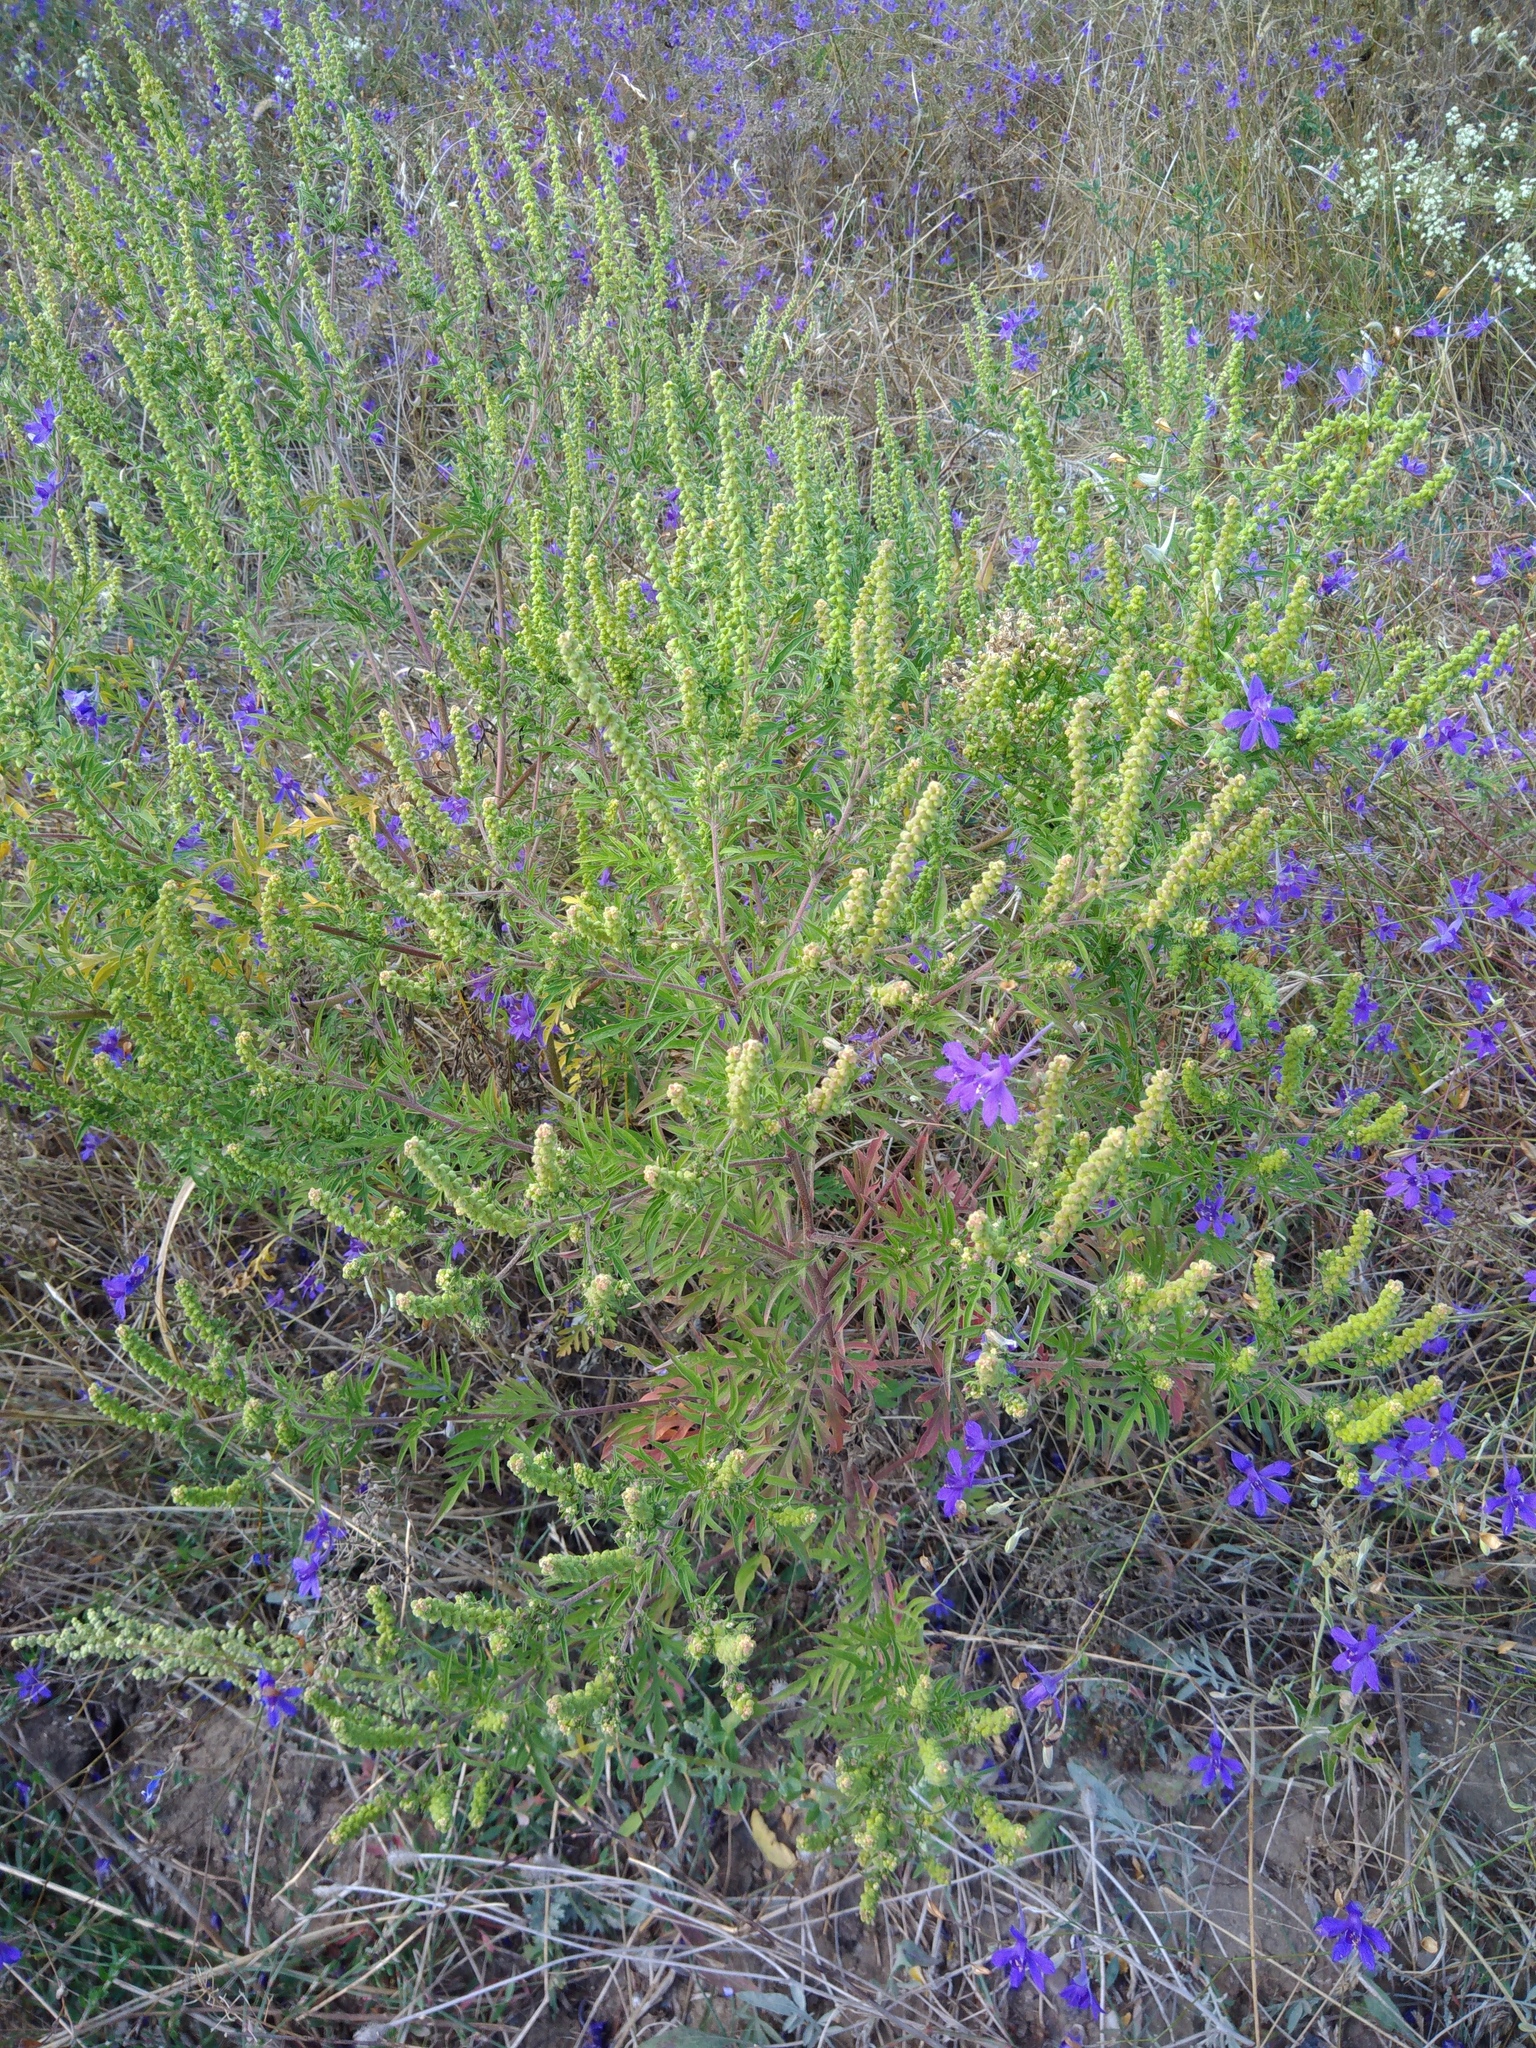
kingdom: Plantae
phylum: Tracheophyta
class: Magnoliopsida
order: Asterales
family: Asteraceae
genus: Ambrosia
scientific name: Ambrosia artemisiifolia
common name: Annual ragweed
